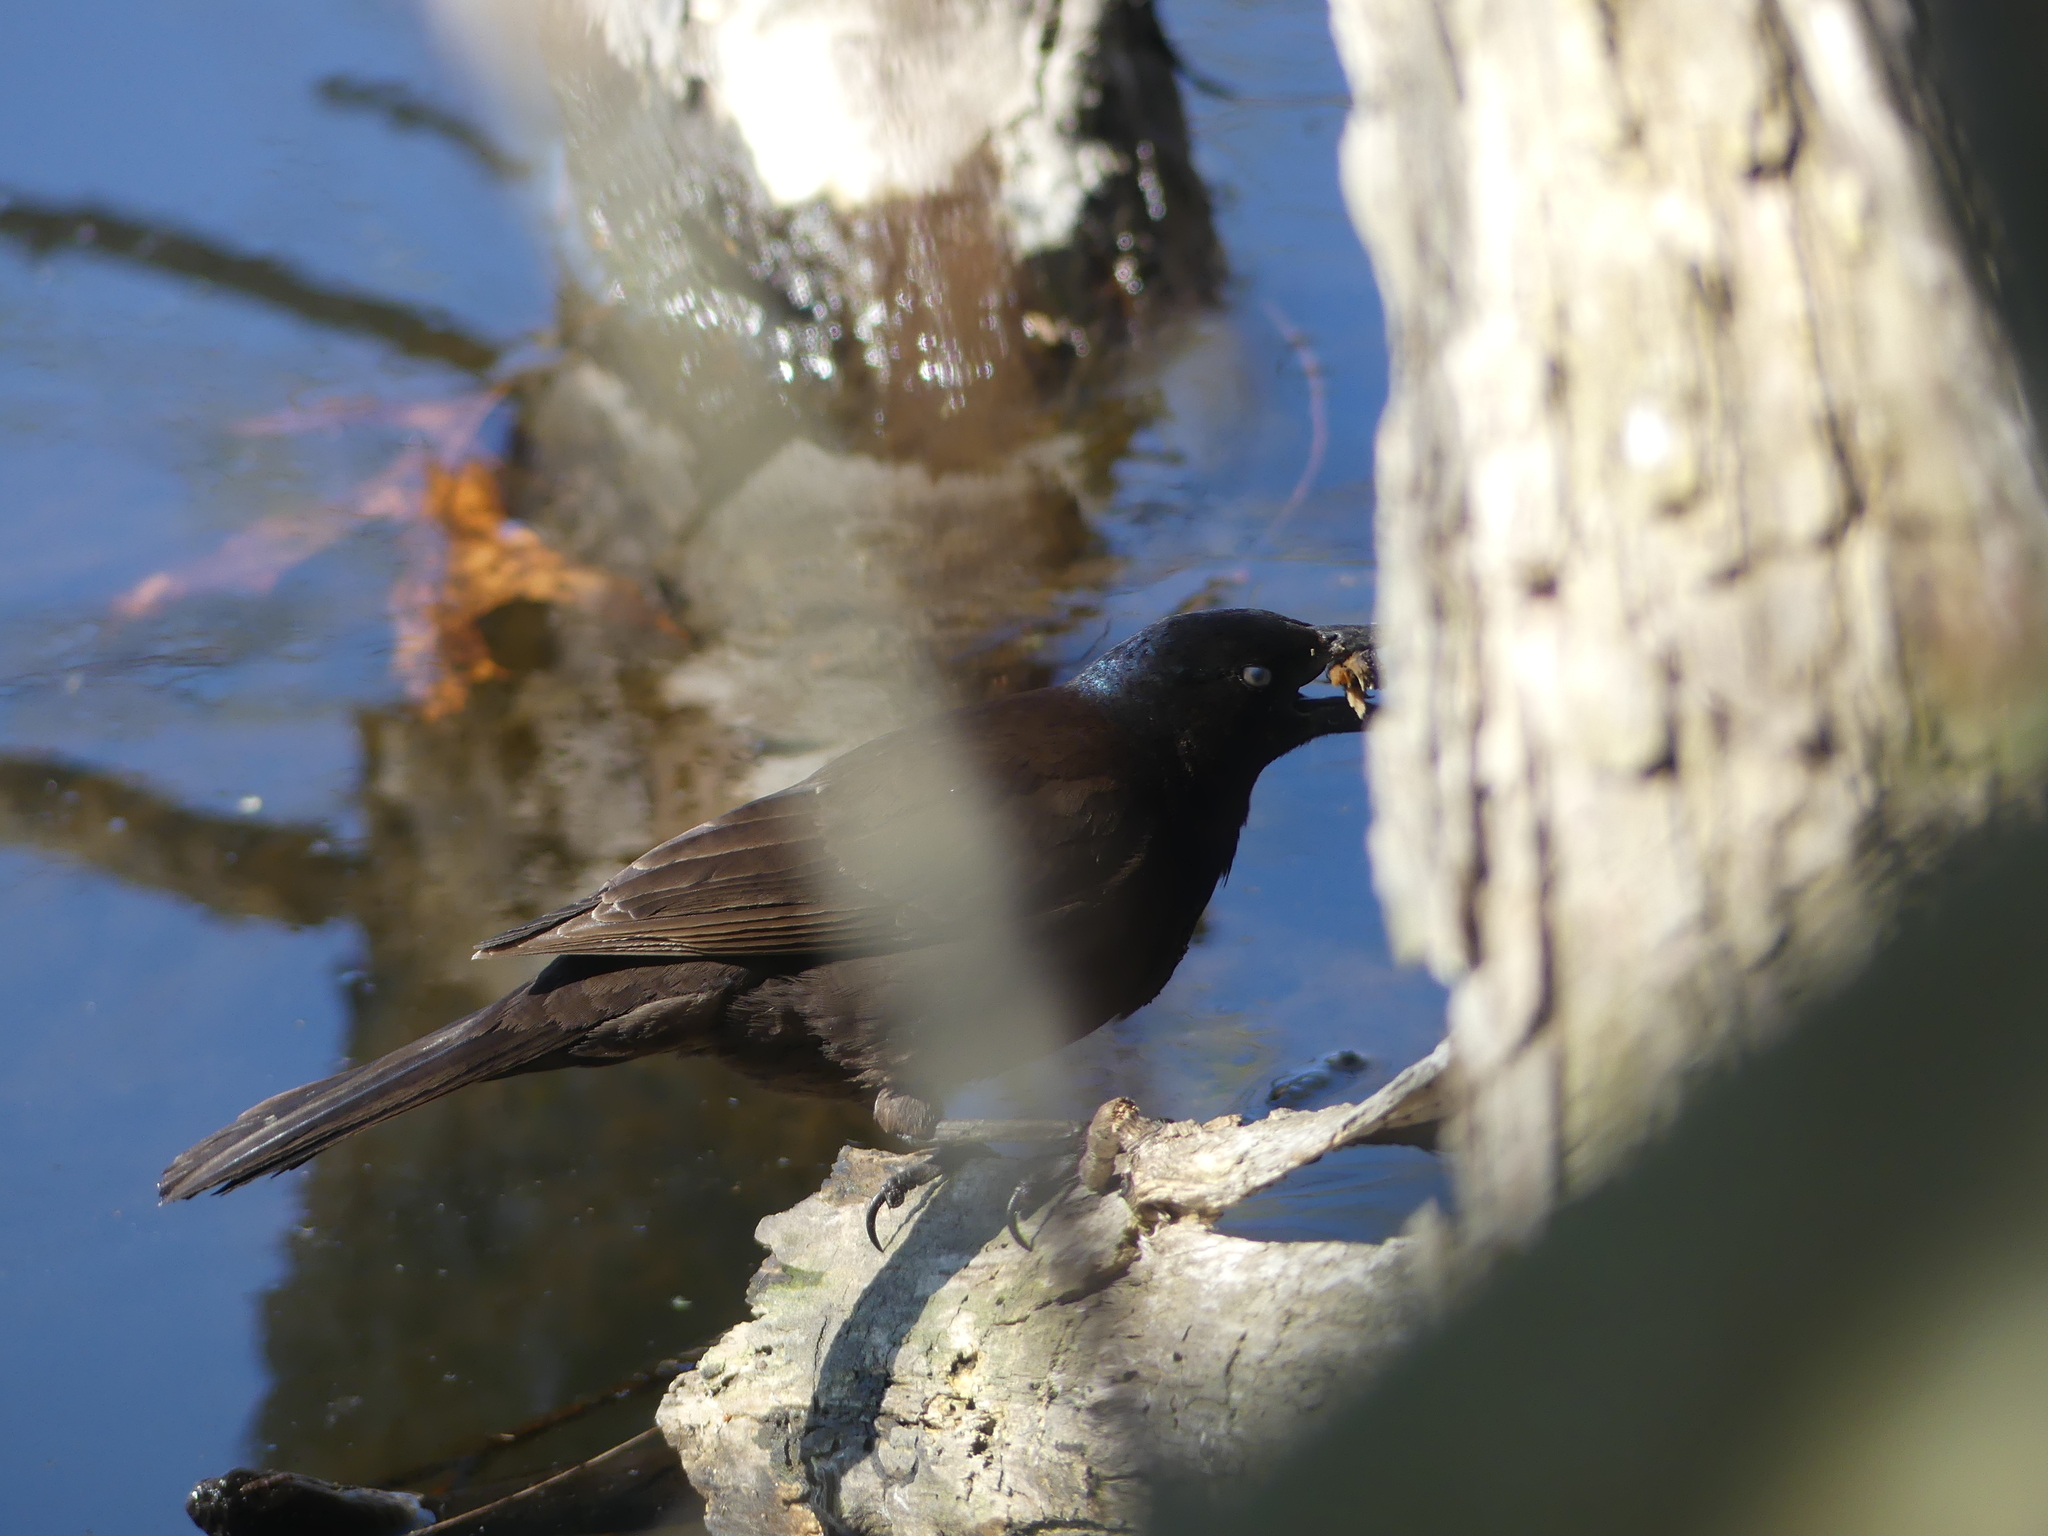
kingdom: Animalia
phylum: Chordata
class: Aves
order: Passeriformes
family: Icteridae
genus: Quiscalus
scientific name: Quiscalus quiscula
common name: Common grackle
